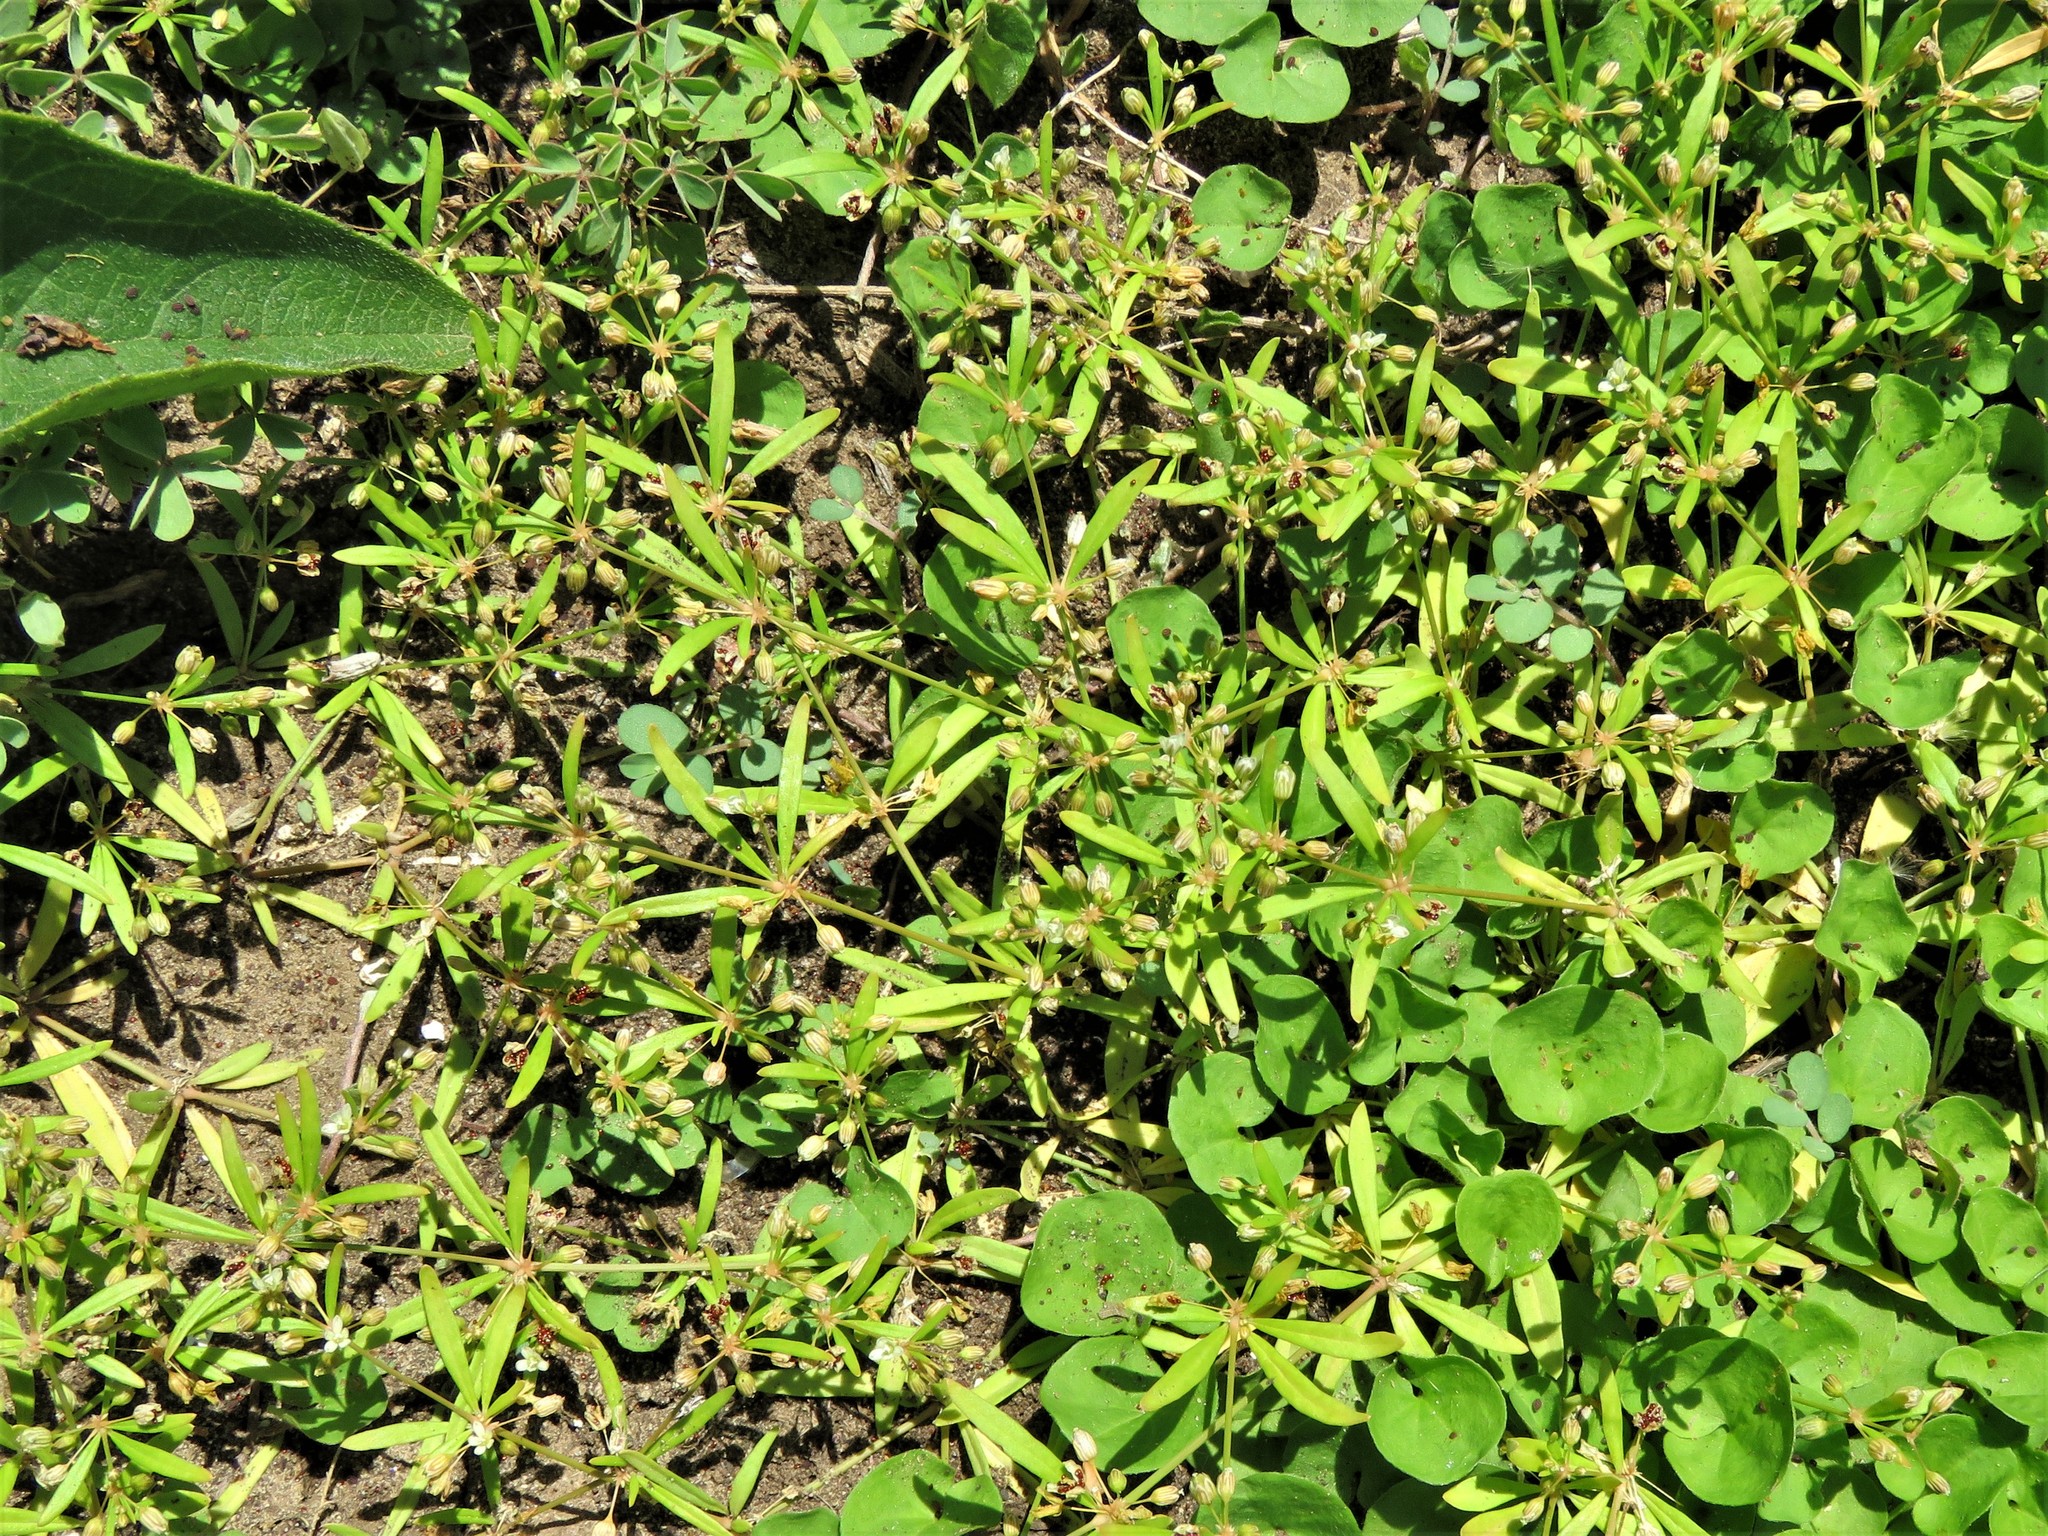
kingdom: Plantae
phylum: Tracheophyta
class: Magnoliopsida
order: Caryophyllales
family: Molluginaceae
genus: Mollugo
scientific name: Mollugo verticillata
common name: Green carpetweed
